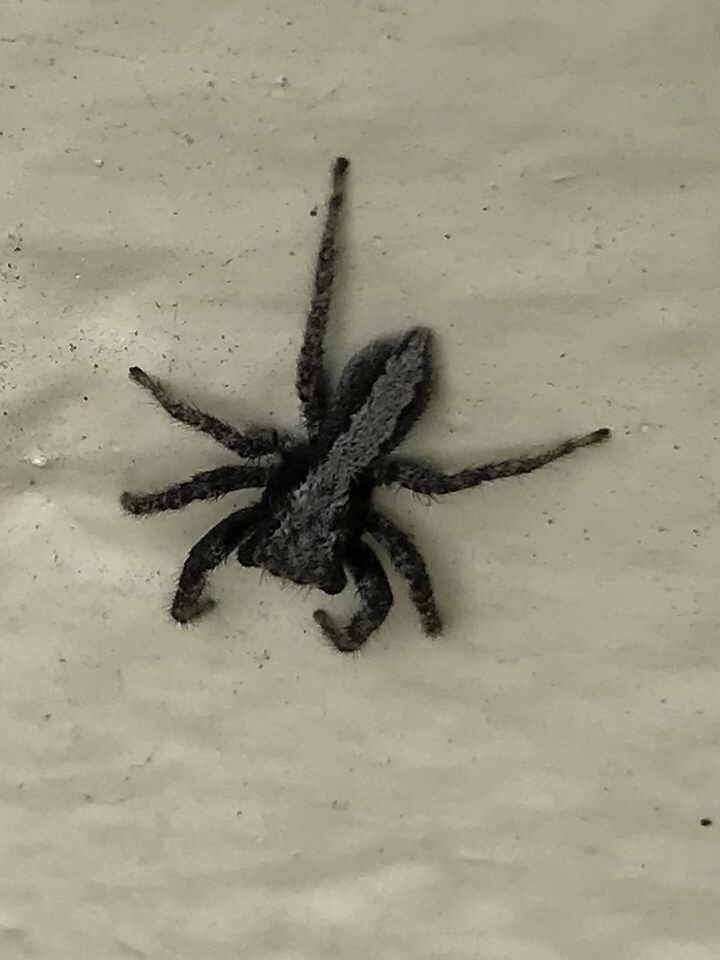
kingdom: Animalia
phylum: Arthropoda
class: Arachnida
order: Araneae
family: Salticidae
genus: Platycryptus
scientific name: Platycryptus californicus
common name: Jumping spiders
